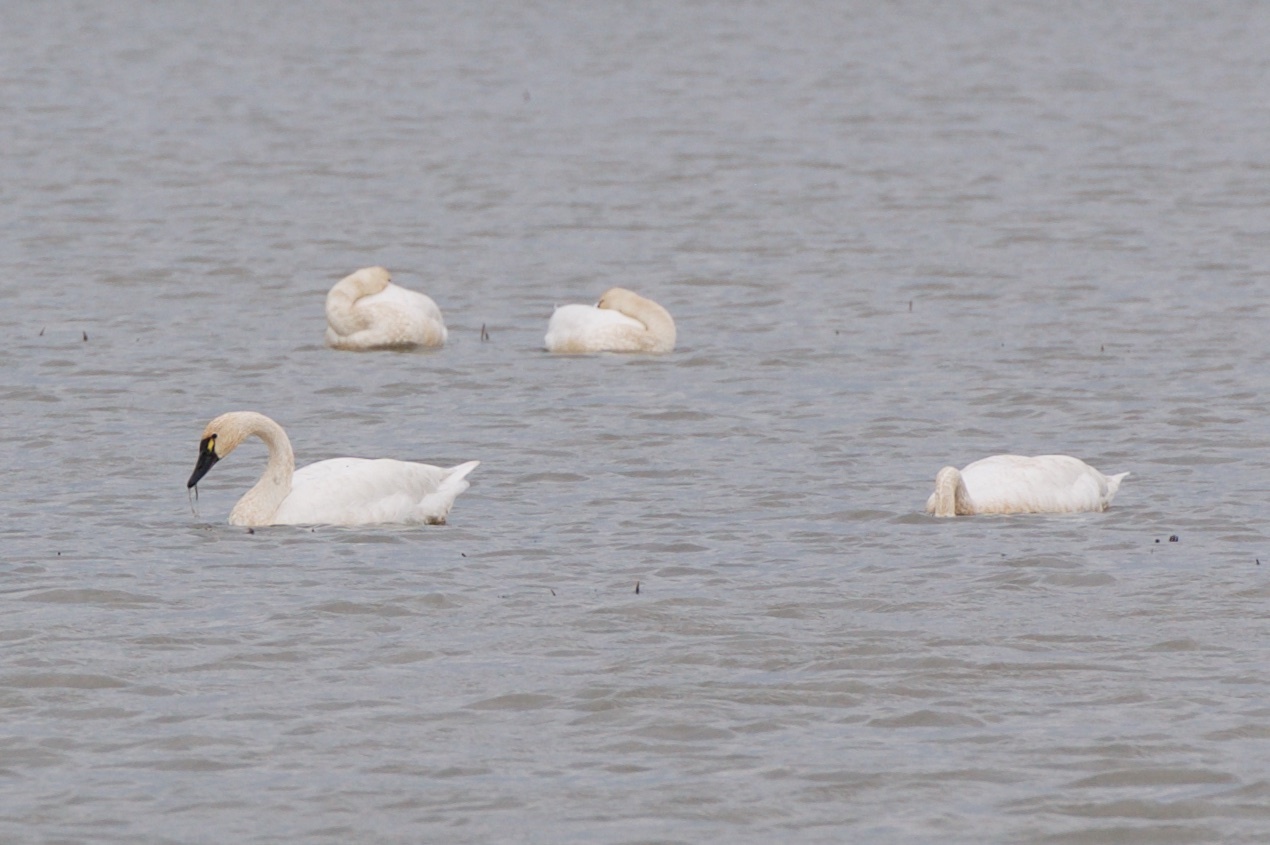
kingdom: Animalia
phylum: Chordata
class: Aves
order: Anseriformes
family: Anatidae
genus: Cygnus
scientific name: Cygnus columbianus
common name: Tundra swan
